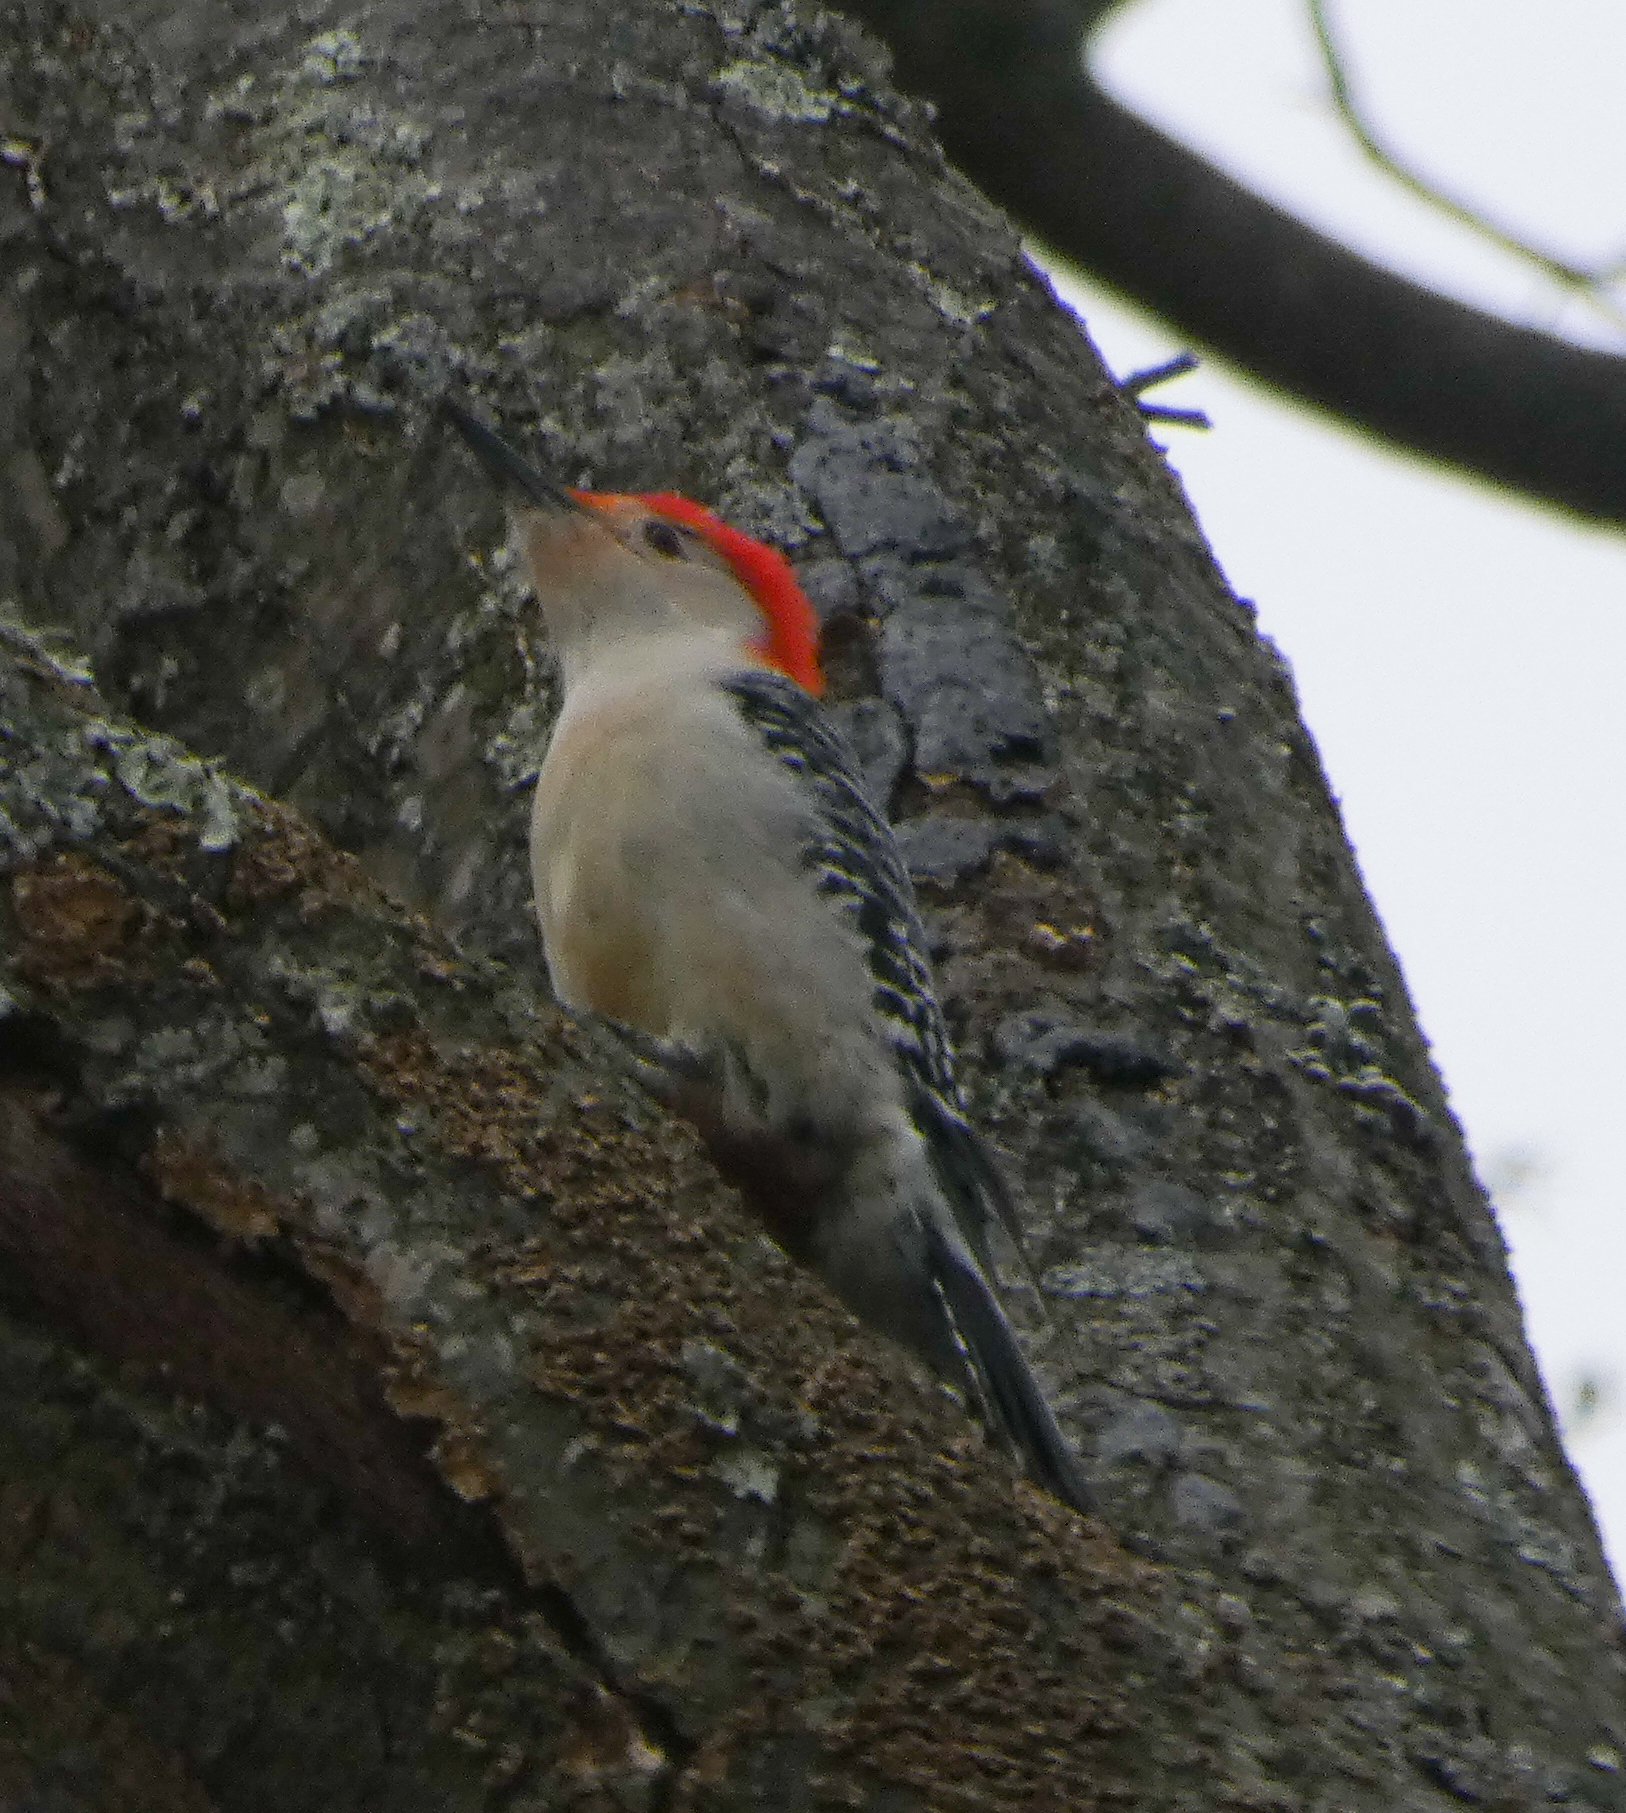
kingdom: Animalia
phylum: Chordata
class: Aves
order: Piciformes
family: Picidae
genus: Melanerpes
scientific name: Melanerpes carolinus
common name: Red-bellied woodpecker
